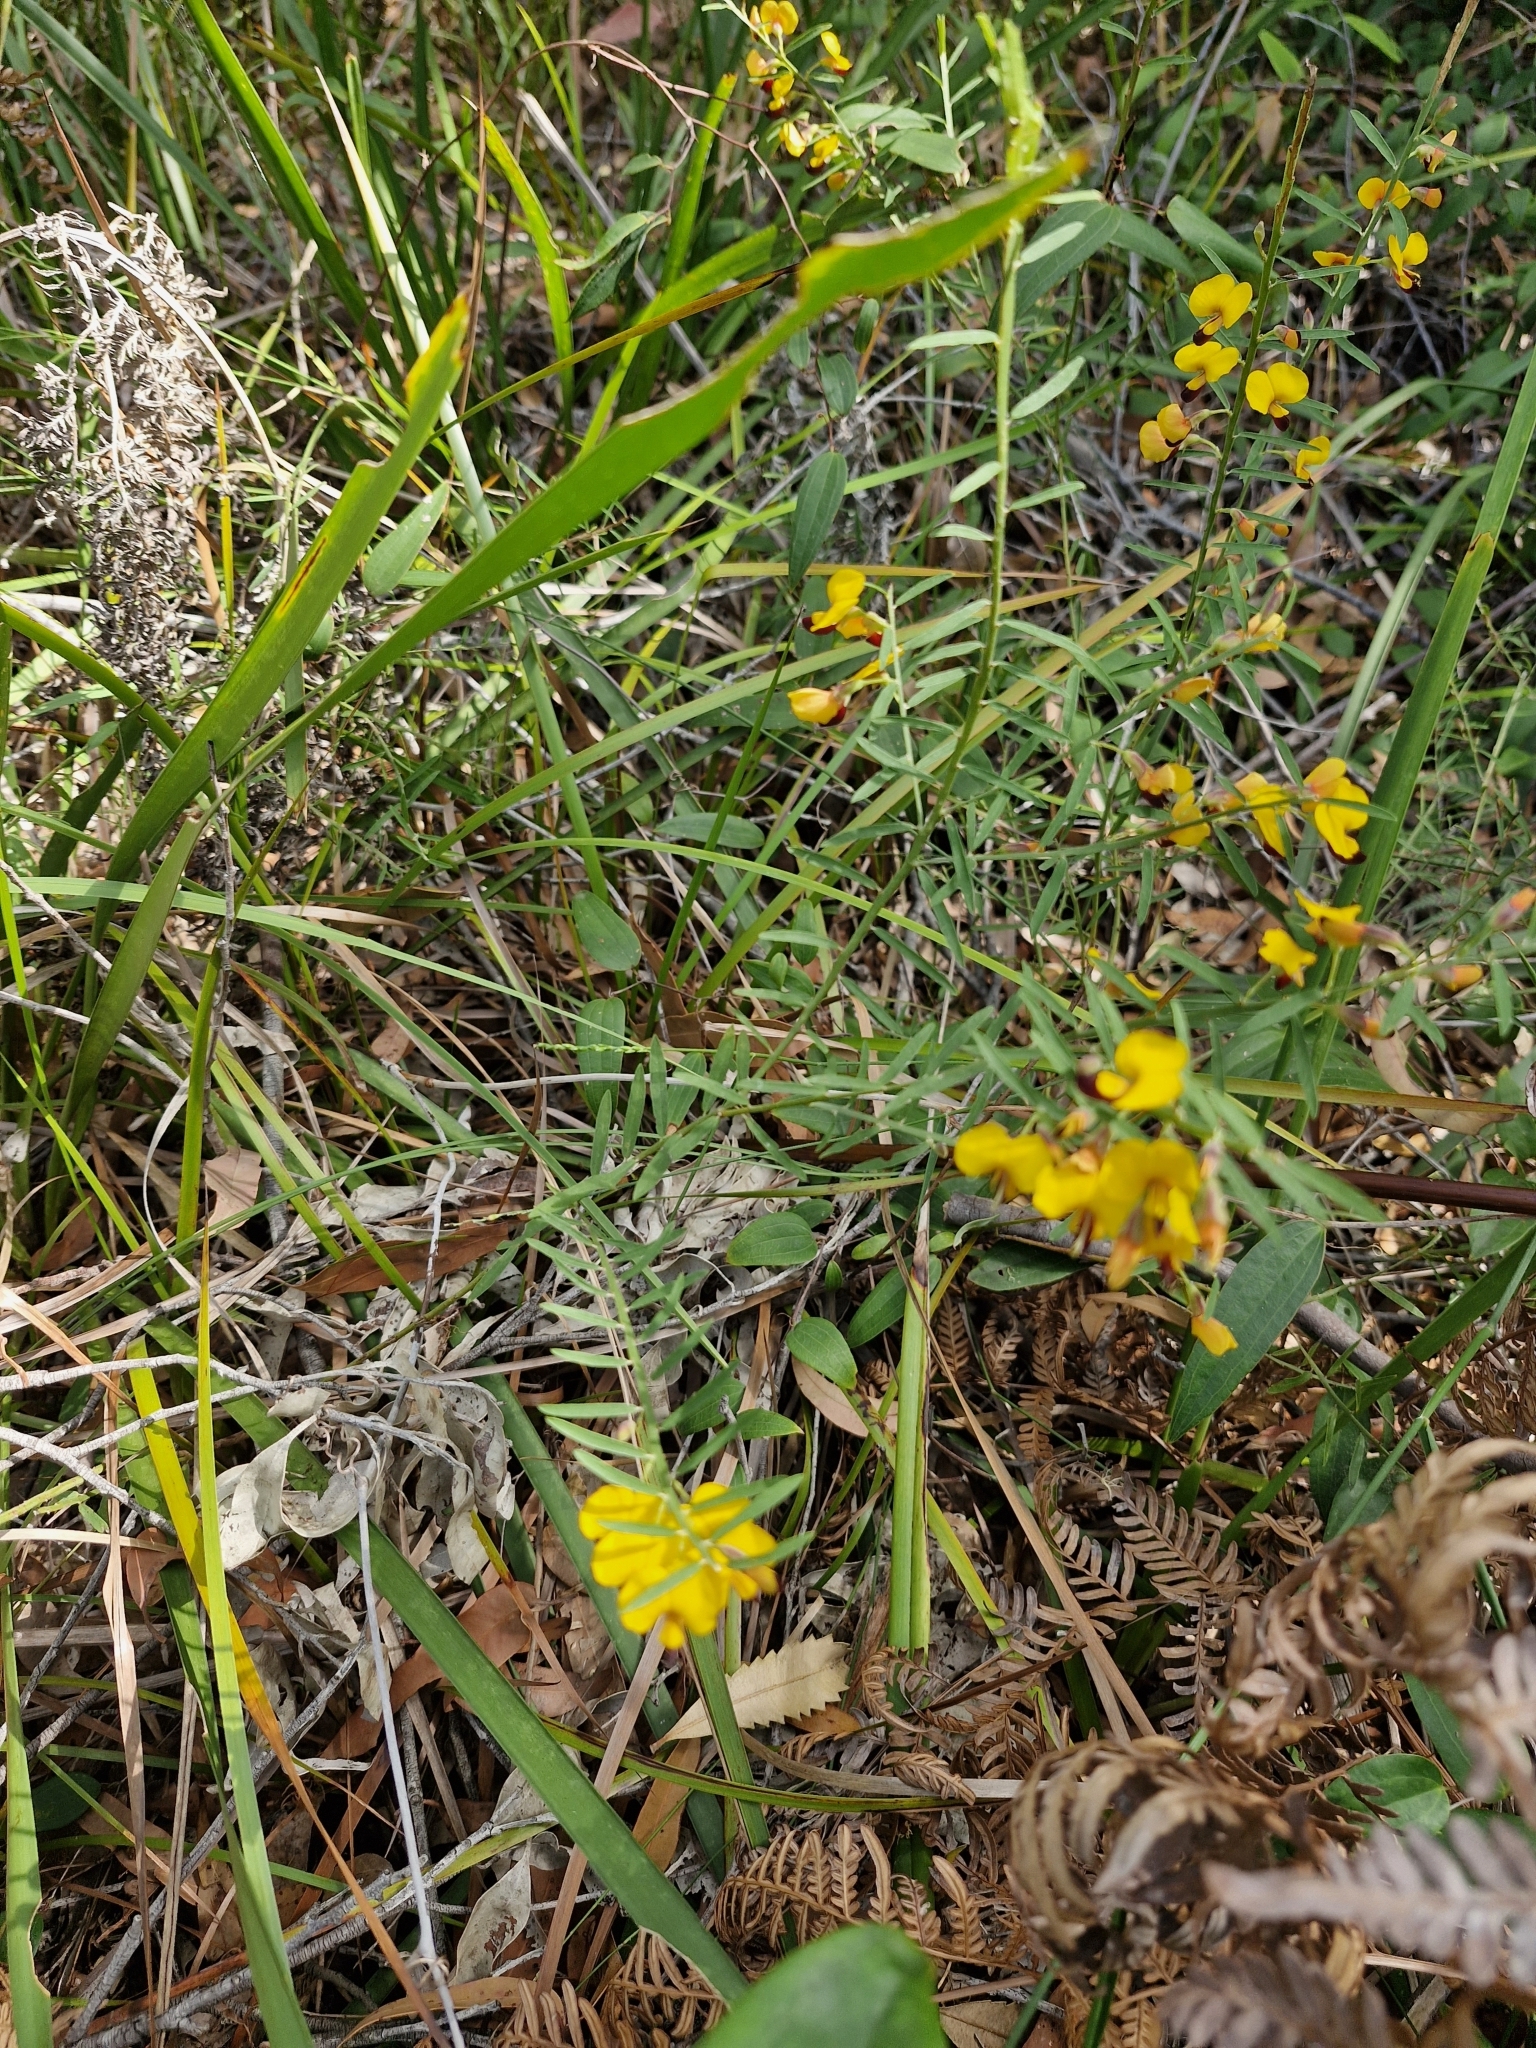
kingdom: Plantae
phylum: Tracheophyta
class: Magnoliopsida
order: Fabales
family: Fabaceae
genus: Bossiaea
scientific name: Bossiaea heterophylla
